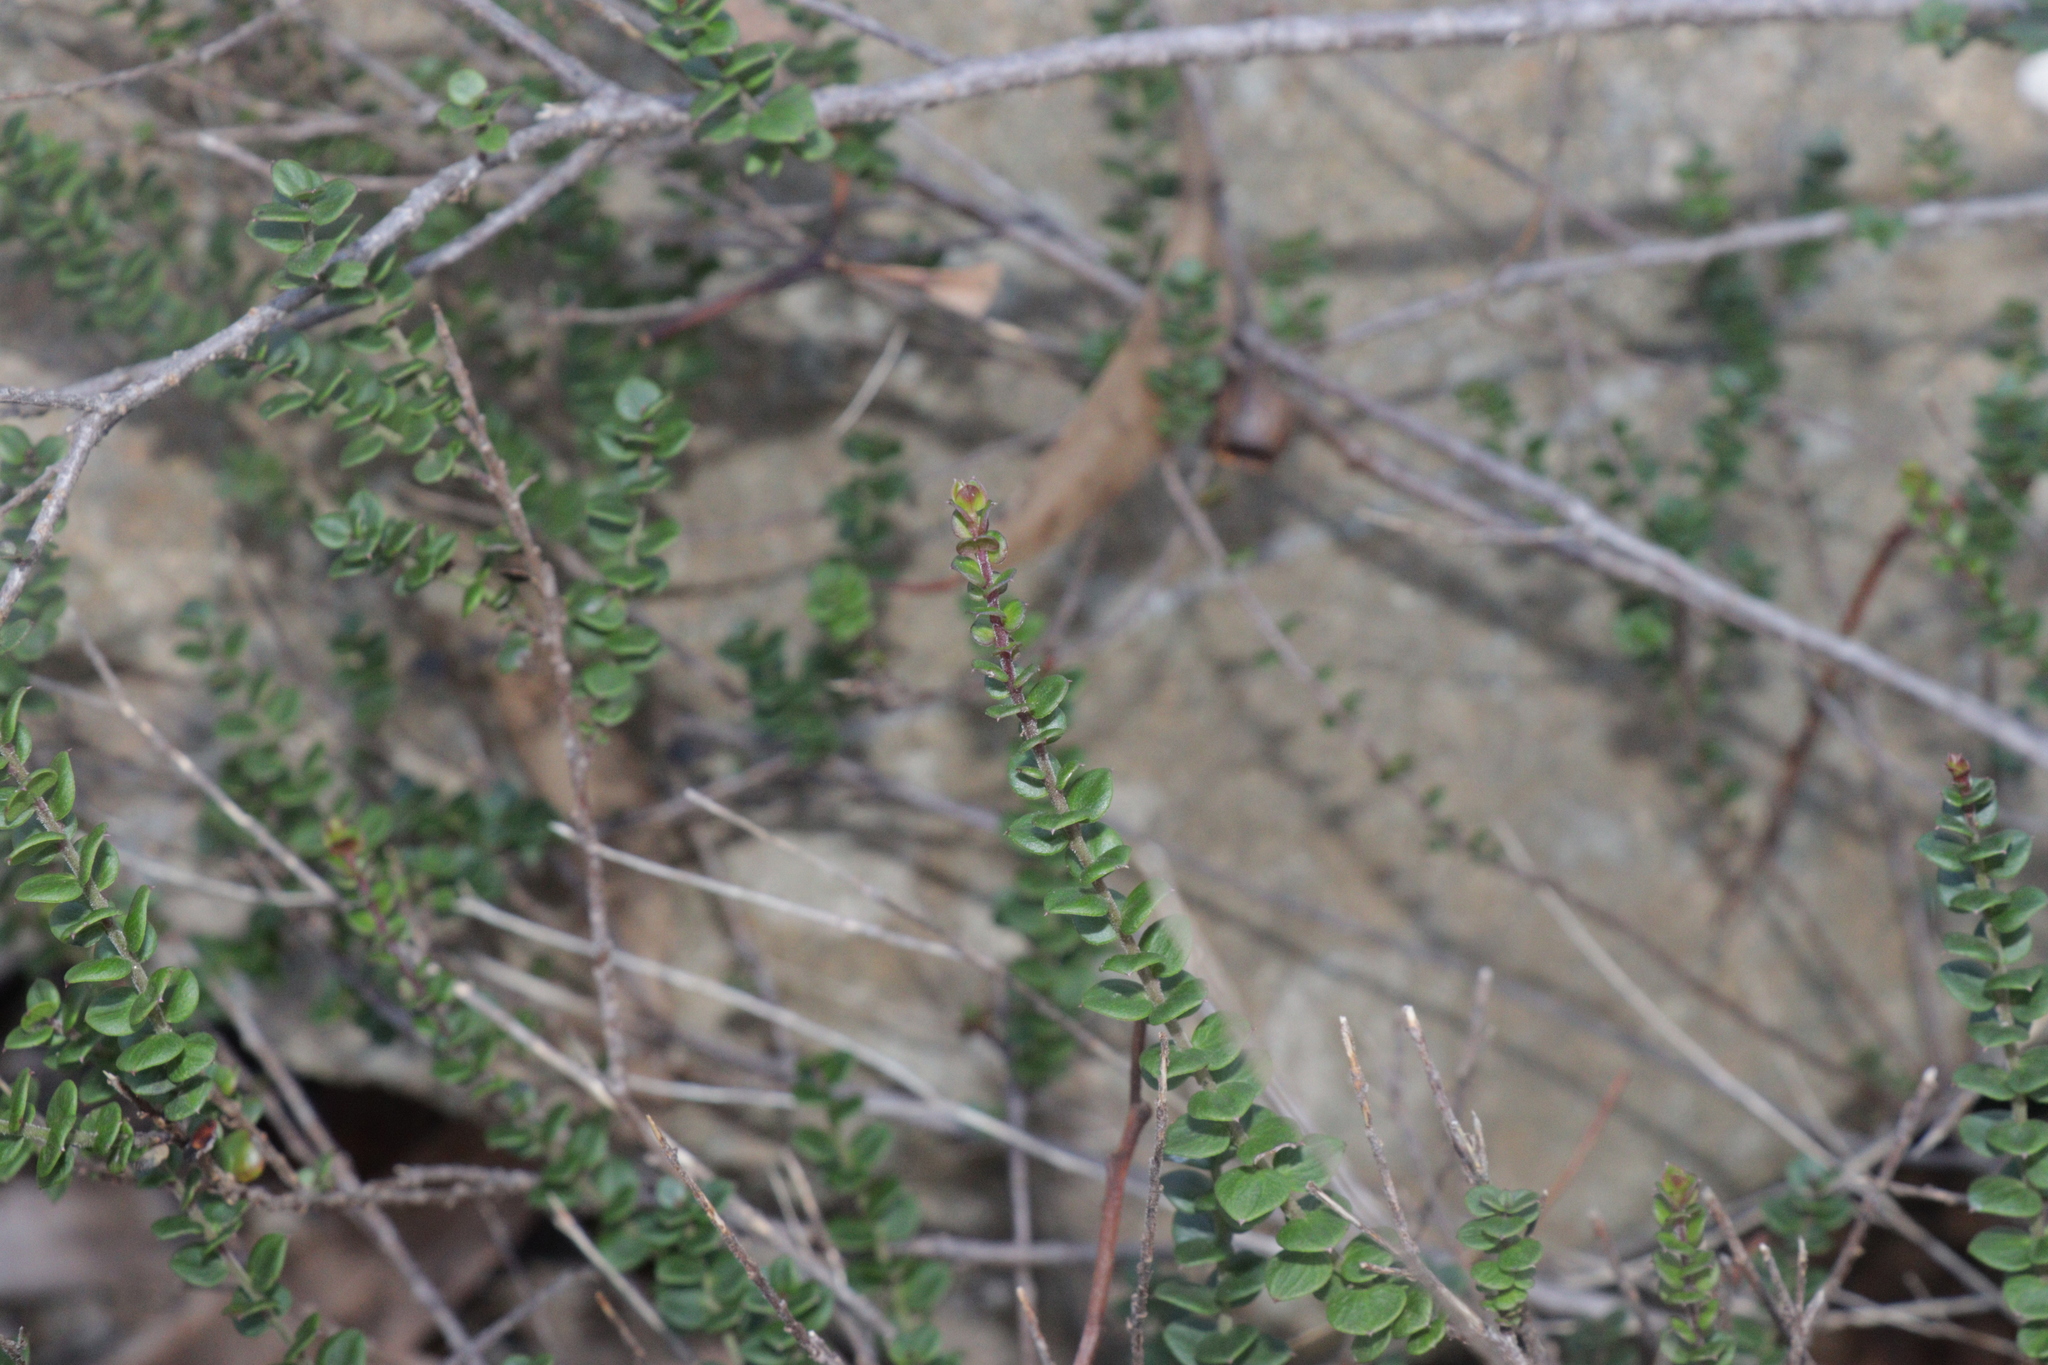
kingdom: Plantae
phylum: Tracheophyta
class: Magnoliopsida
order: Apiales
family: Apiaceae
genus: Platysace
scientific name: Platysace lanceolata
